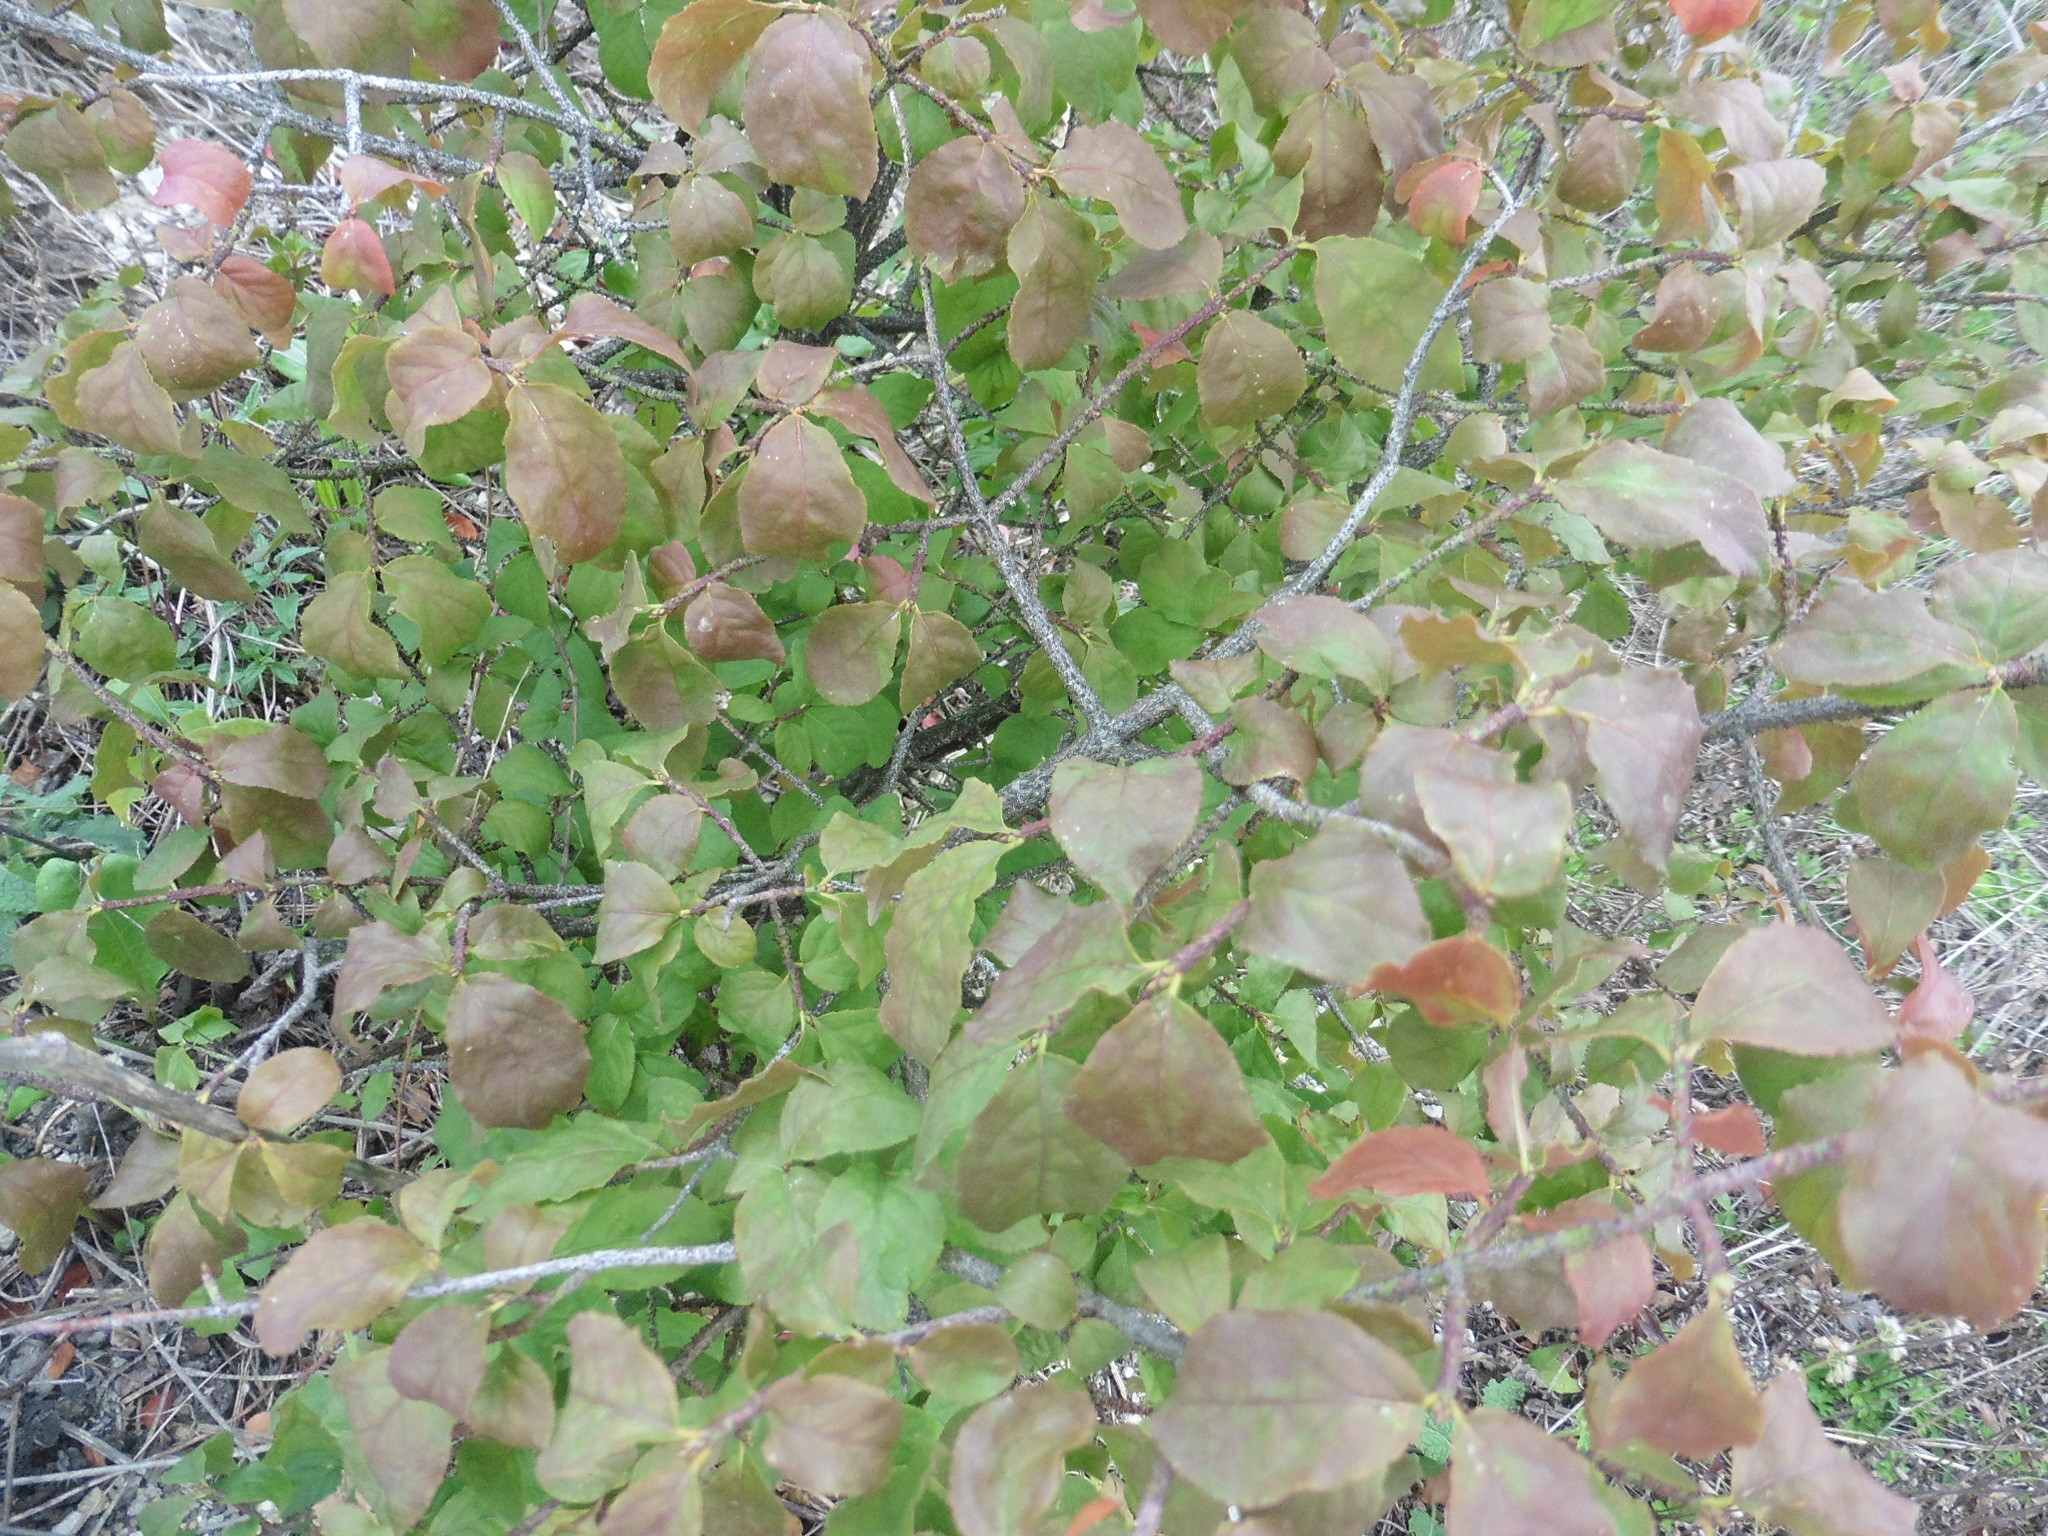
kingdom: Plantae
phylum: Tracheophyta
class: Magnoliopsida
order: Celastrales
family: Celastraceae
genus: Euonymus
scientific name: Euonymus verrucosus
